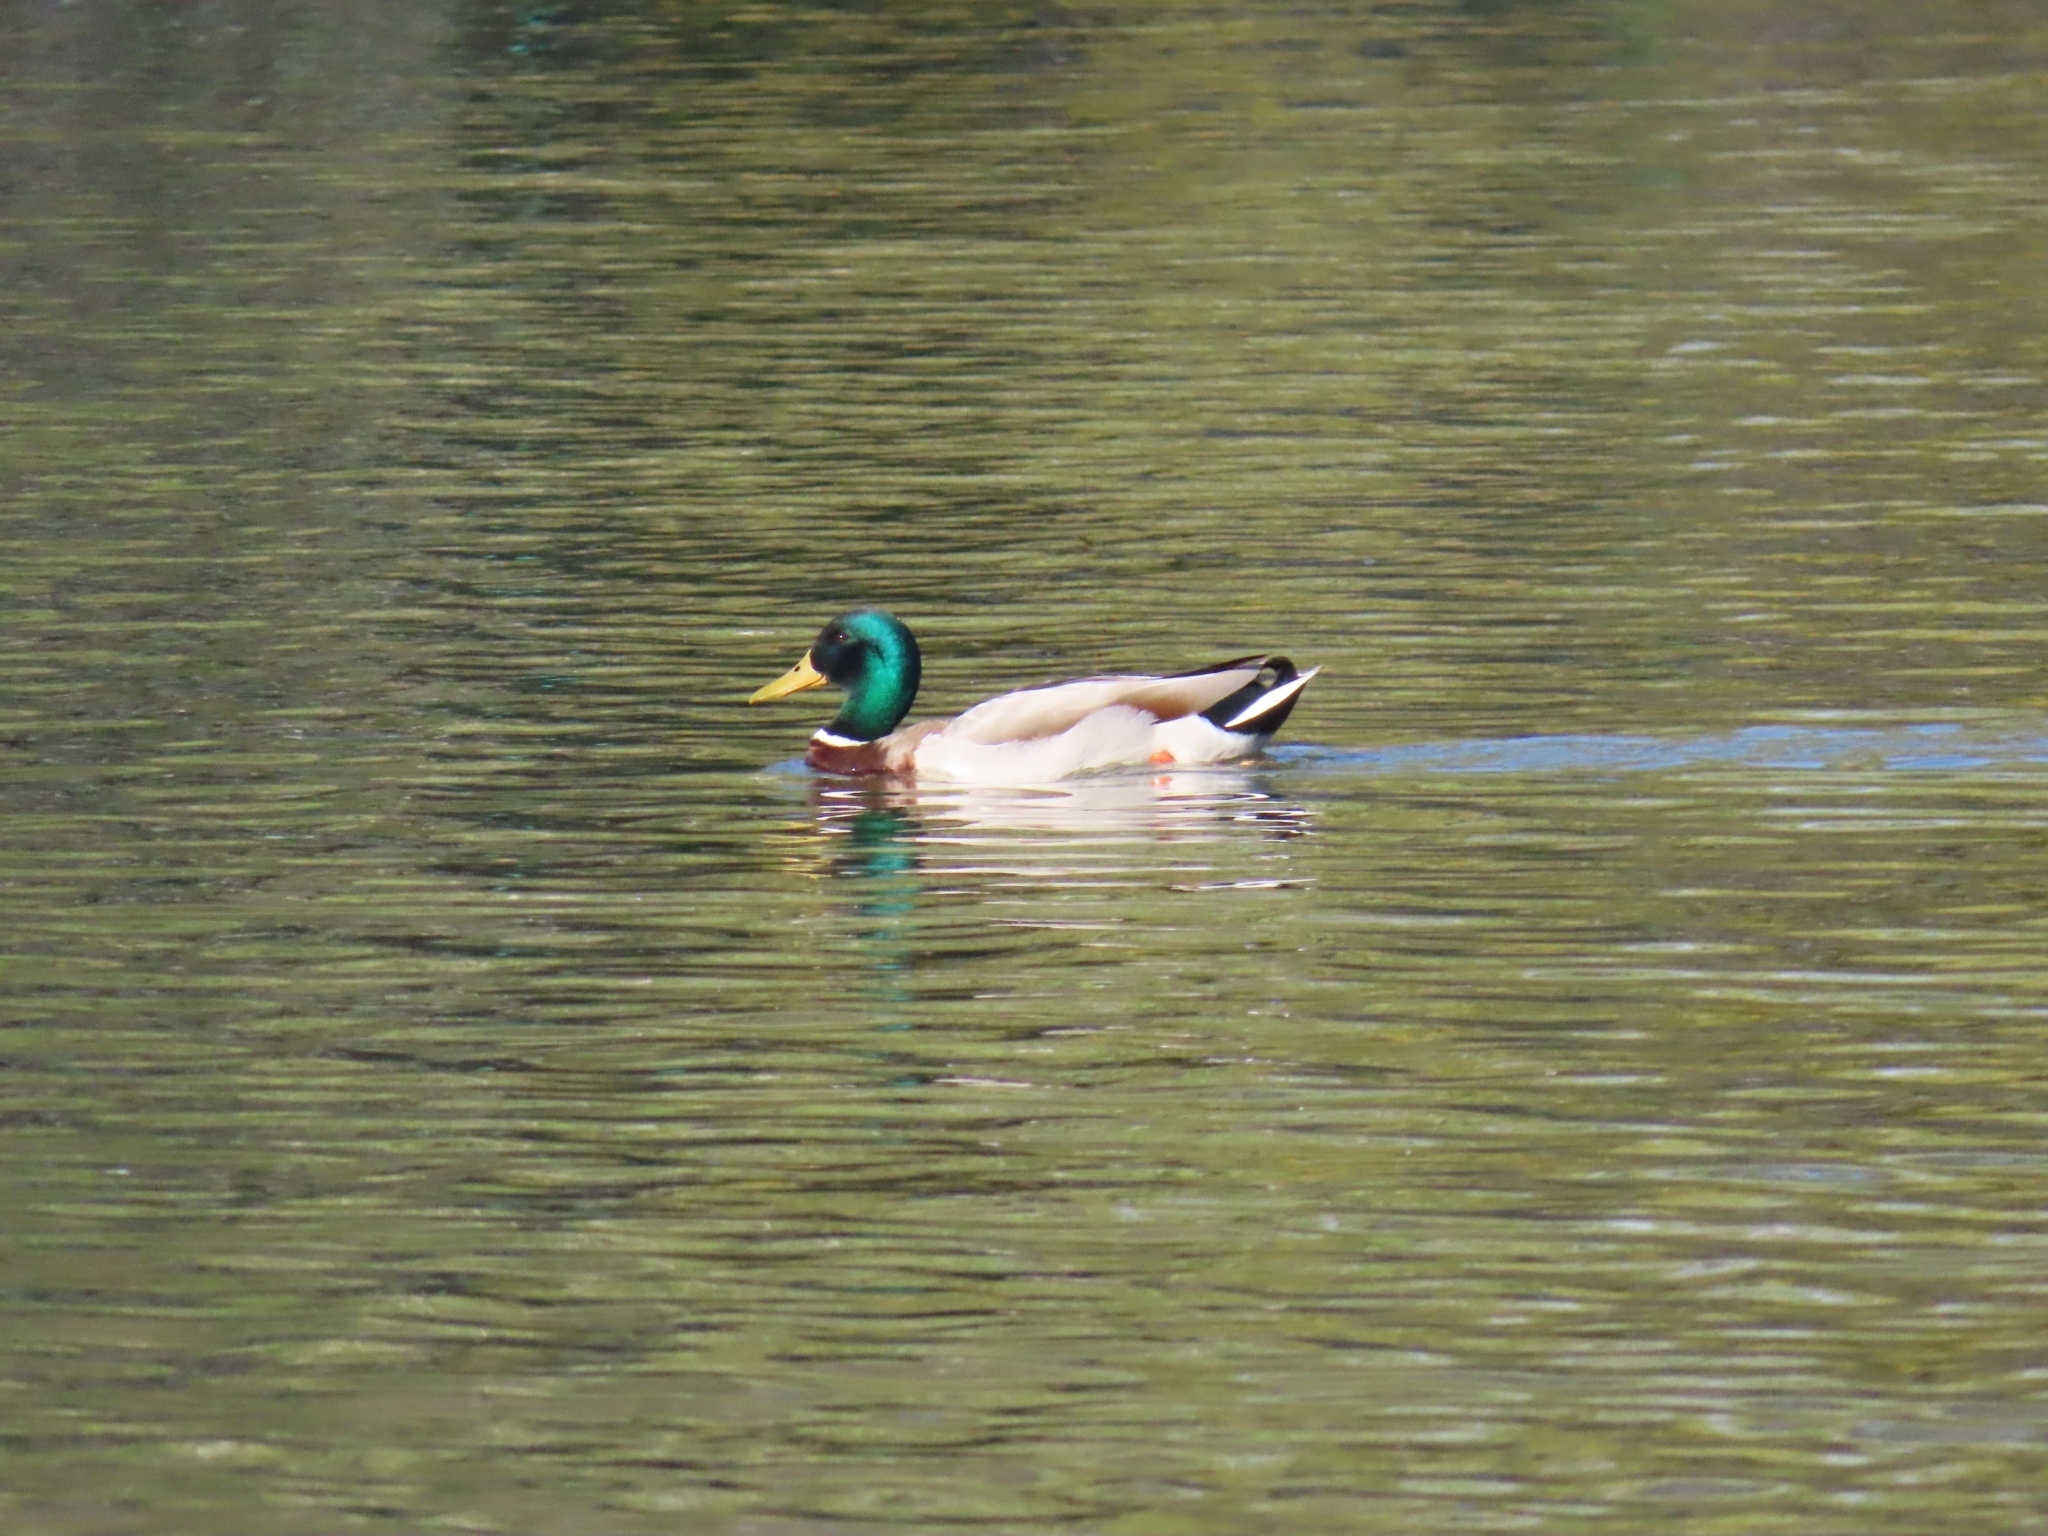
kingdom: Animalia
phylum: Chordata
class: Aves
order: Anseriformes
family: Anatidae
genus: Anas
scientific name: Anas platyrhynchos
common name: Mallard
